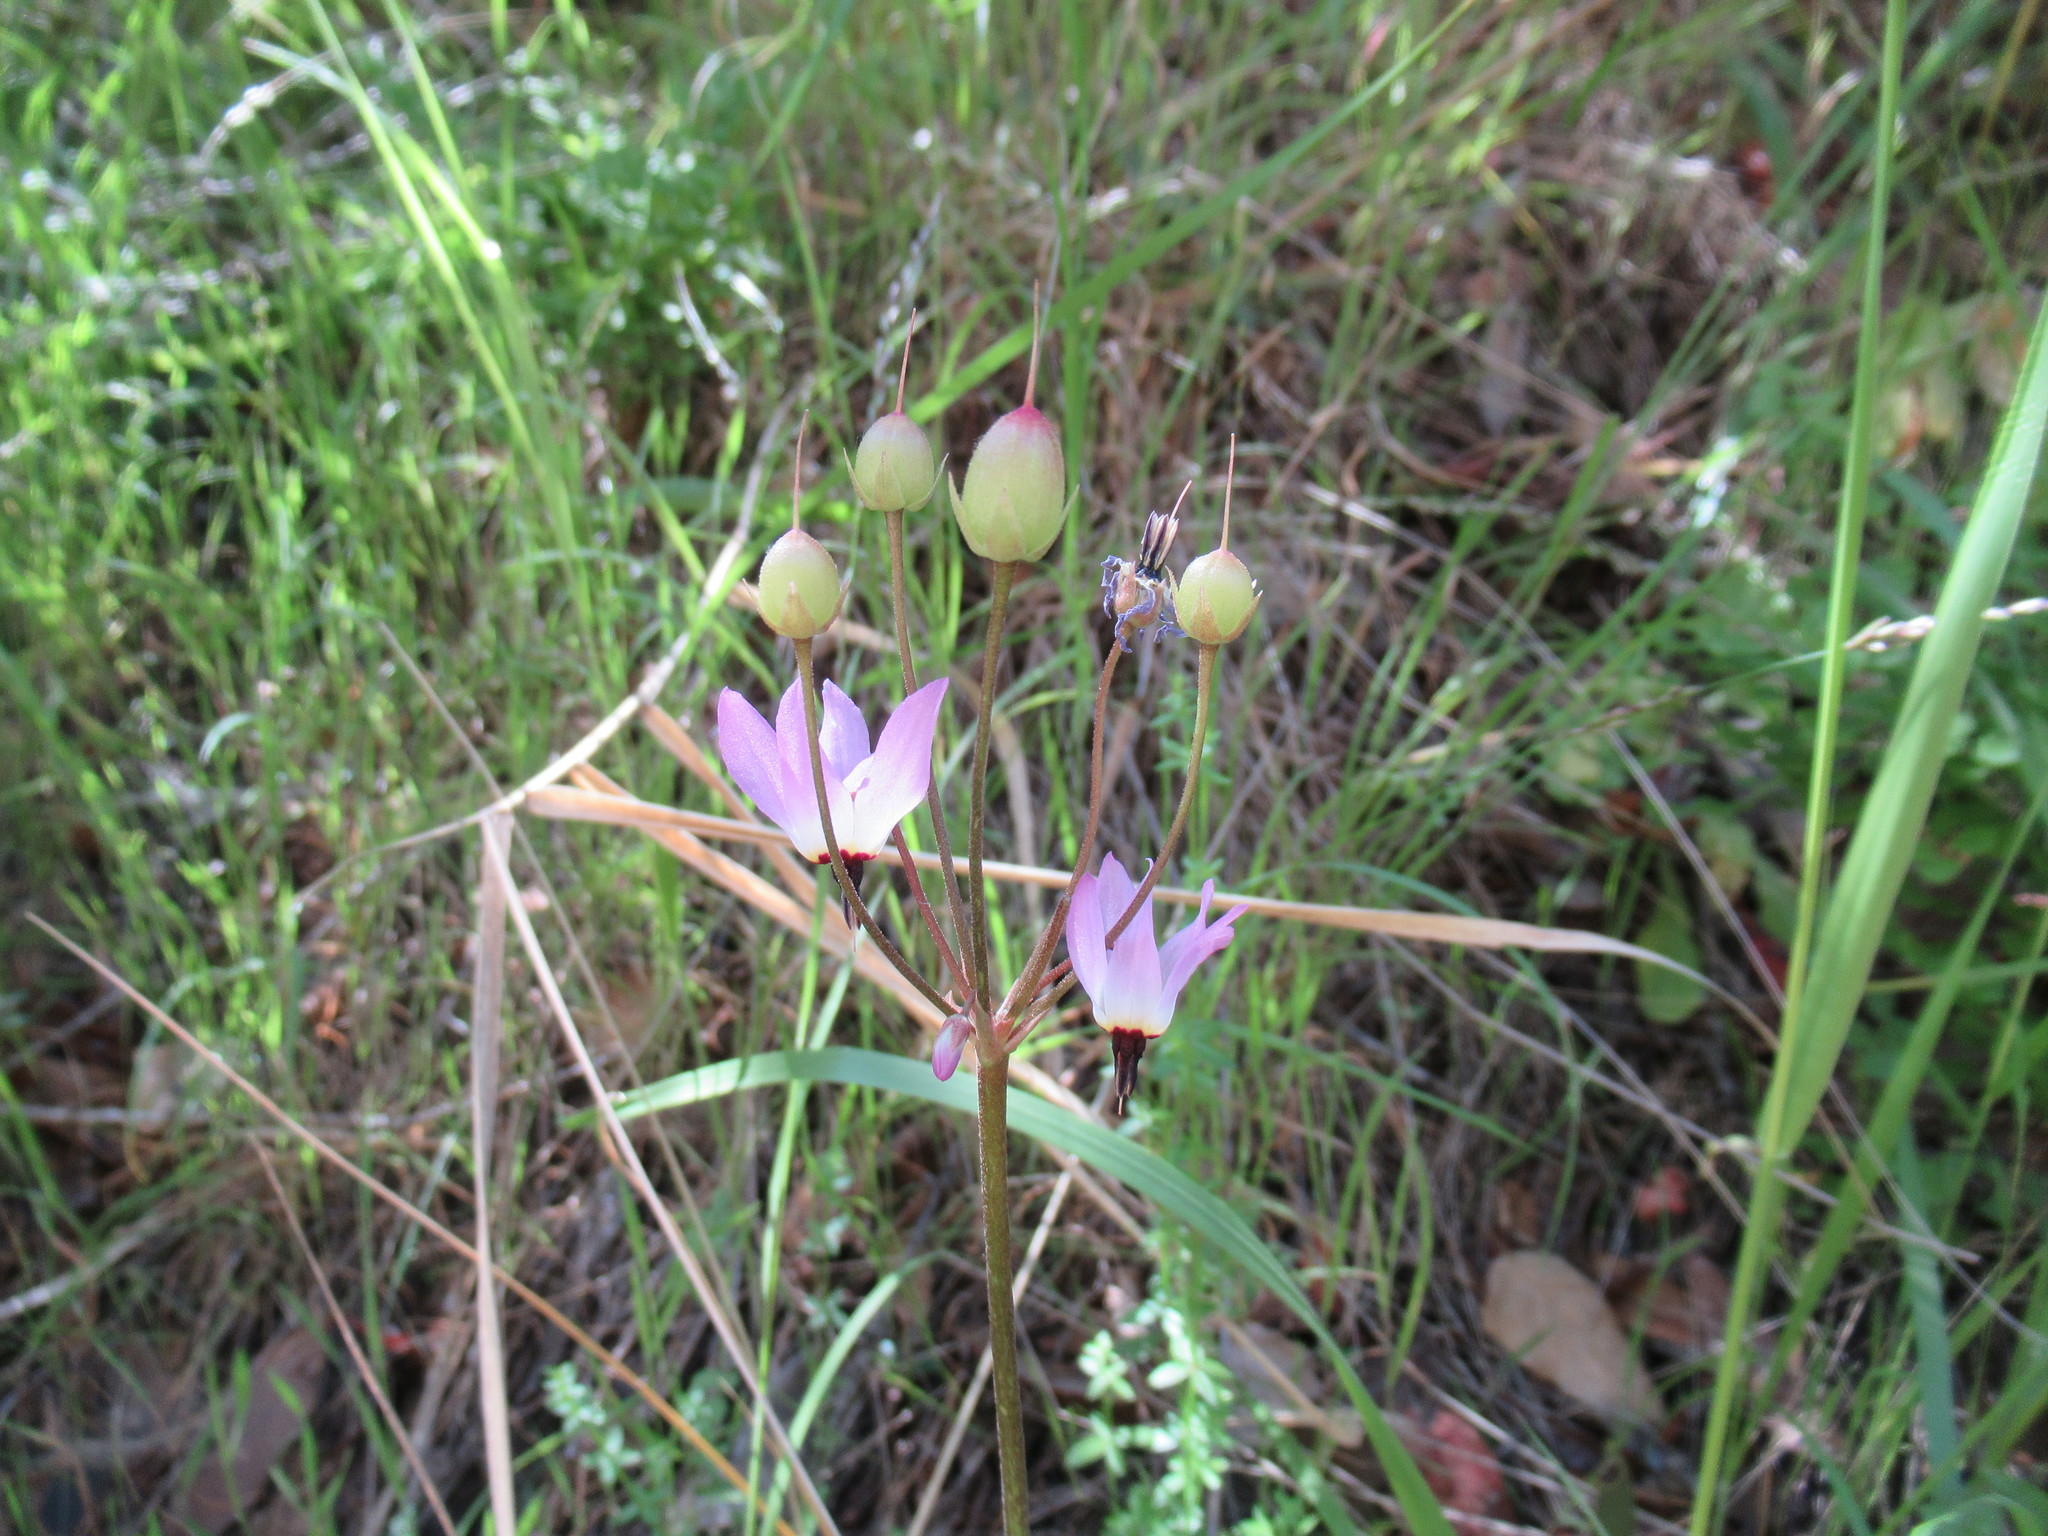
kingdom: Plantae
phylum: Tracheophyta
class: Magnoliopsida
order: Ericales
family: Primulaceae
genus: Dodecatheon
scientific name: Dodecatheon hendersonii
